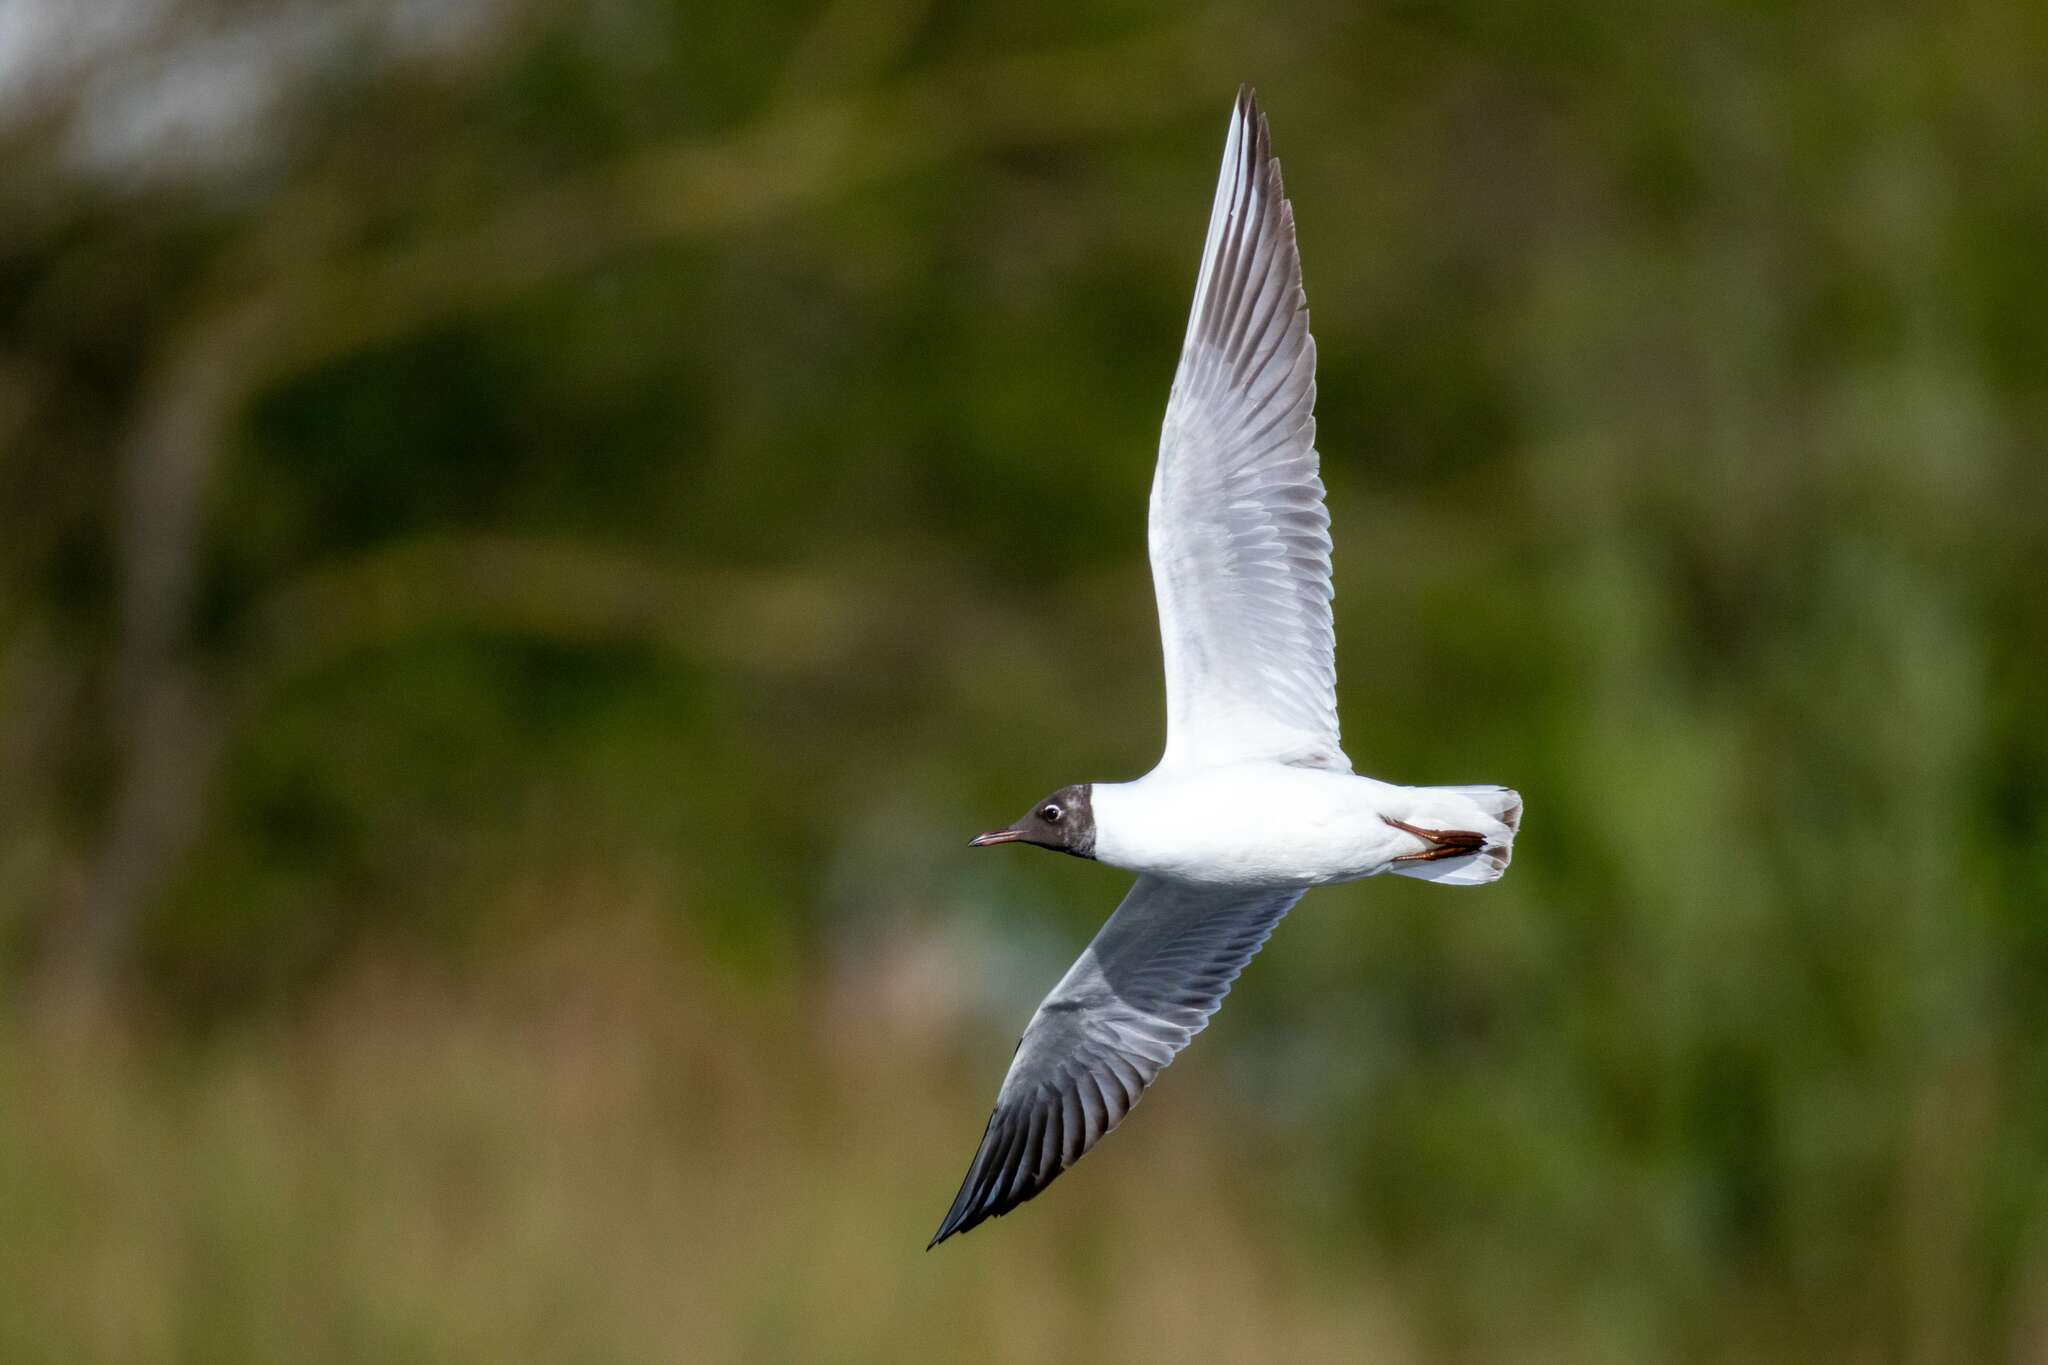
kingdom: Animalia
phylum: Chordata
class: Aves
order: Charadriiformes
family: Laridae
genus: Chroicocephalus
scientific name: Chroicocephalus ridibundus
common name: Black-headed gull
